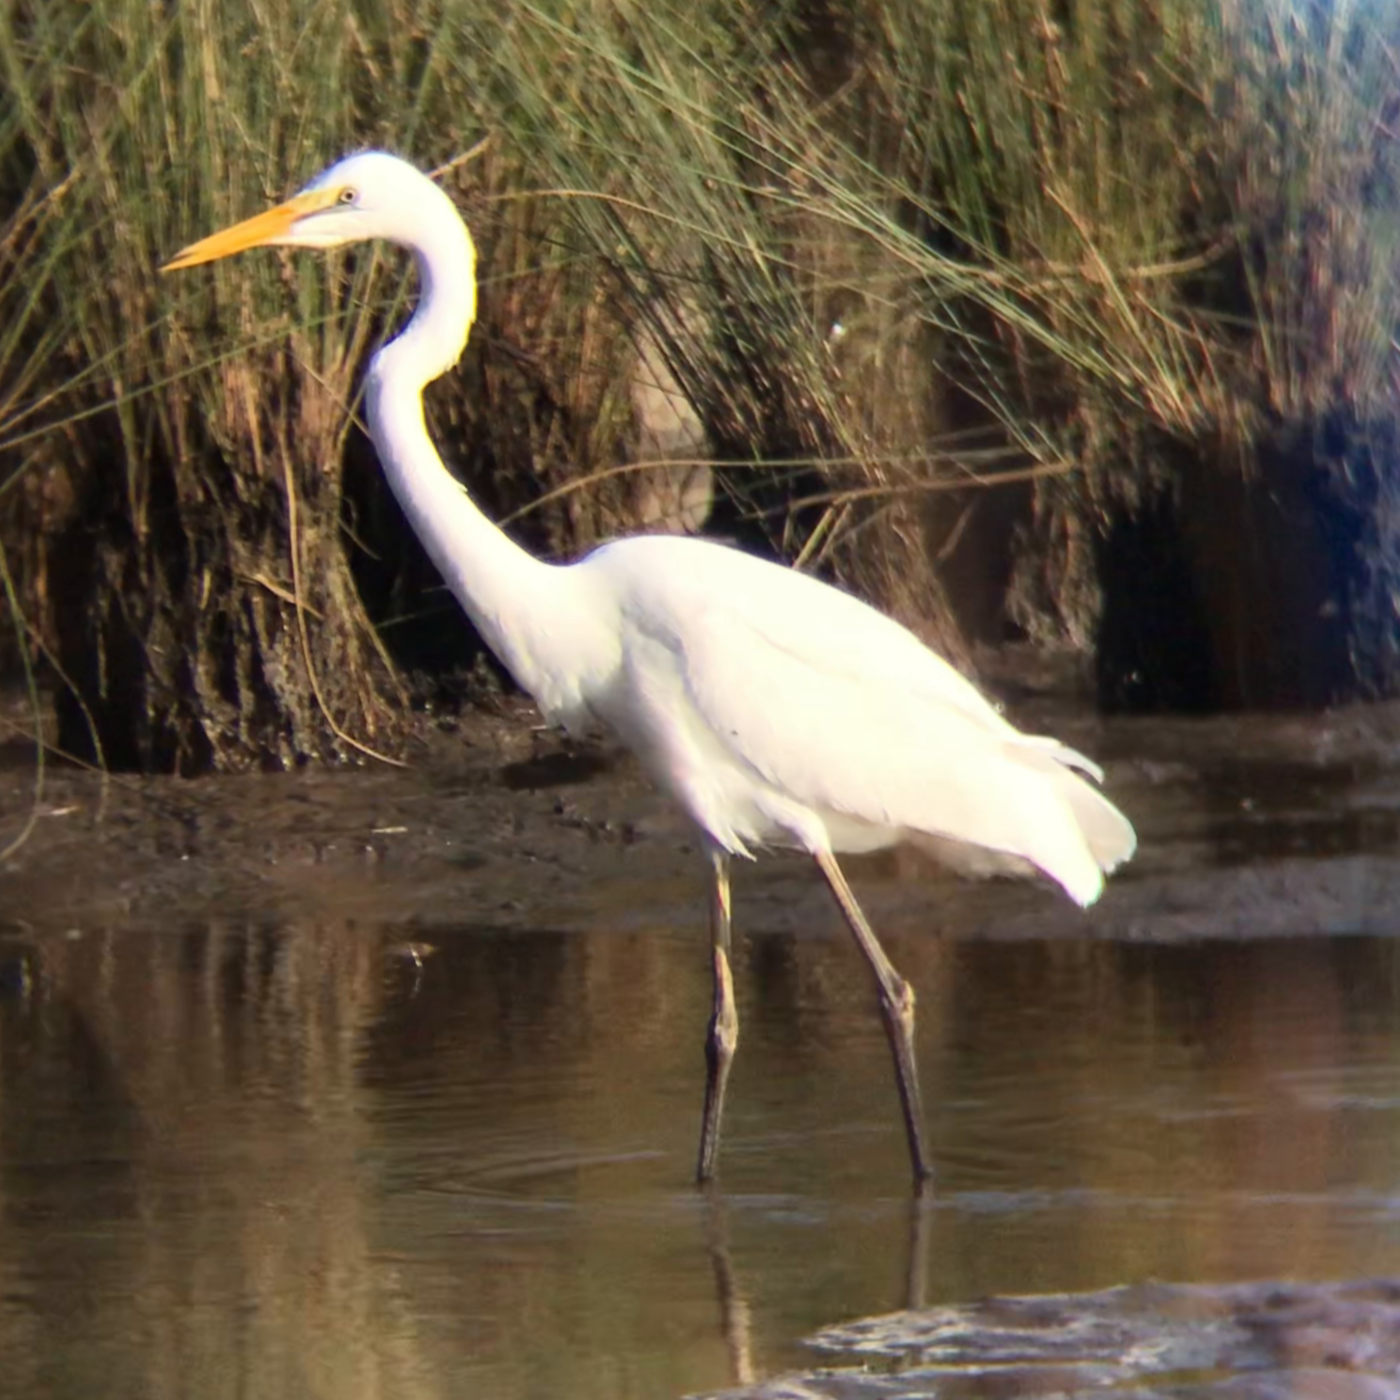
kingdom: Animalia
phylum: Chordata
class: Aves
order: Pelecaniformes
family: Ardeidae
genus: Ardea
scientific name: Ardea alba
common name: Great egret
